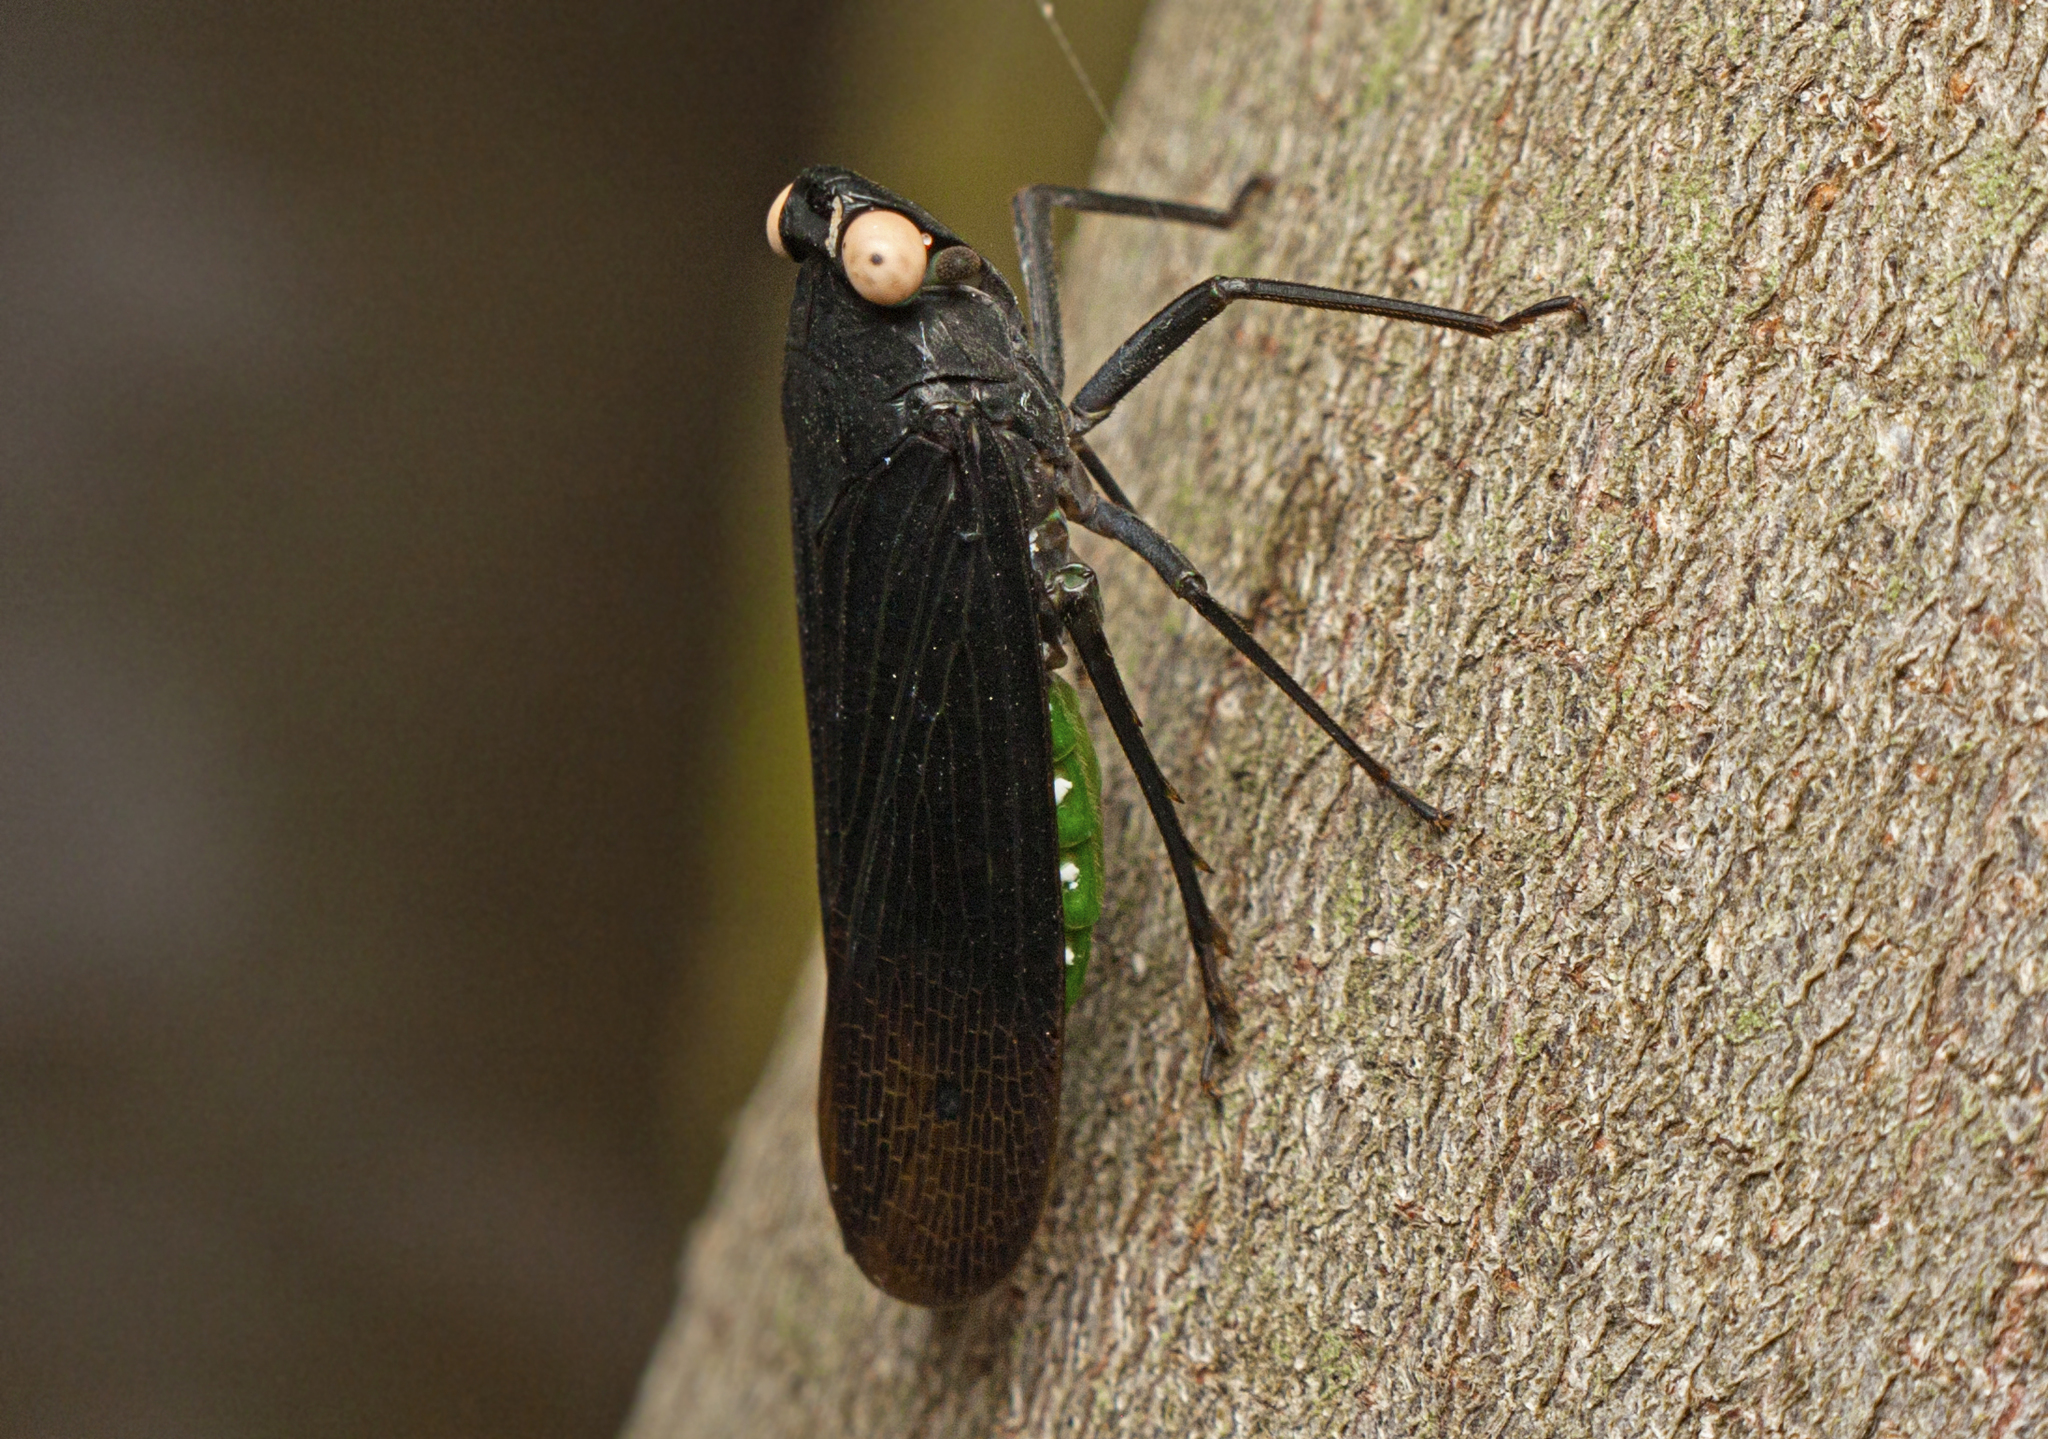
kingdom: Animalia
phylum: Arthropoda
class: Insecta
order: Hemiptera
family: Fulgoridae
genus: Desudaba
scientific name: Desudaba psittacus
